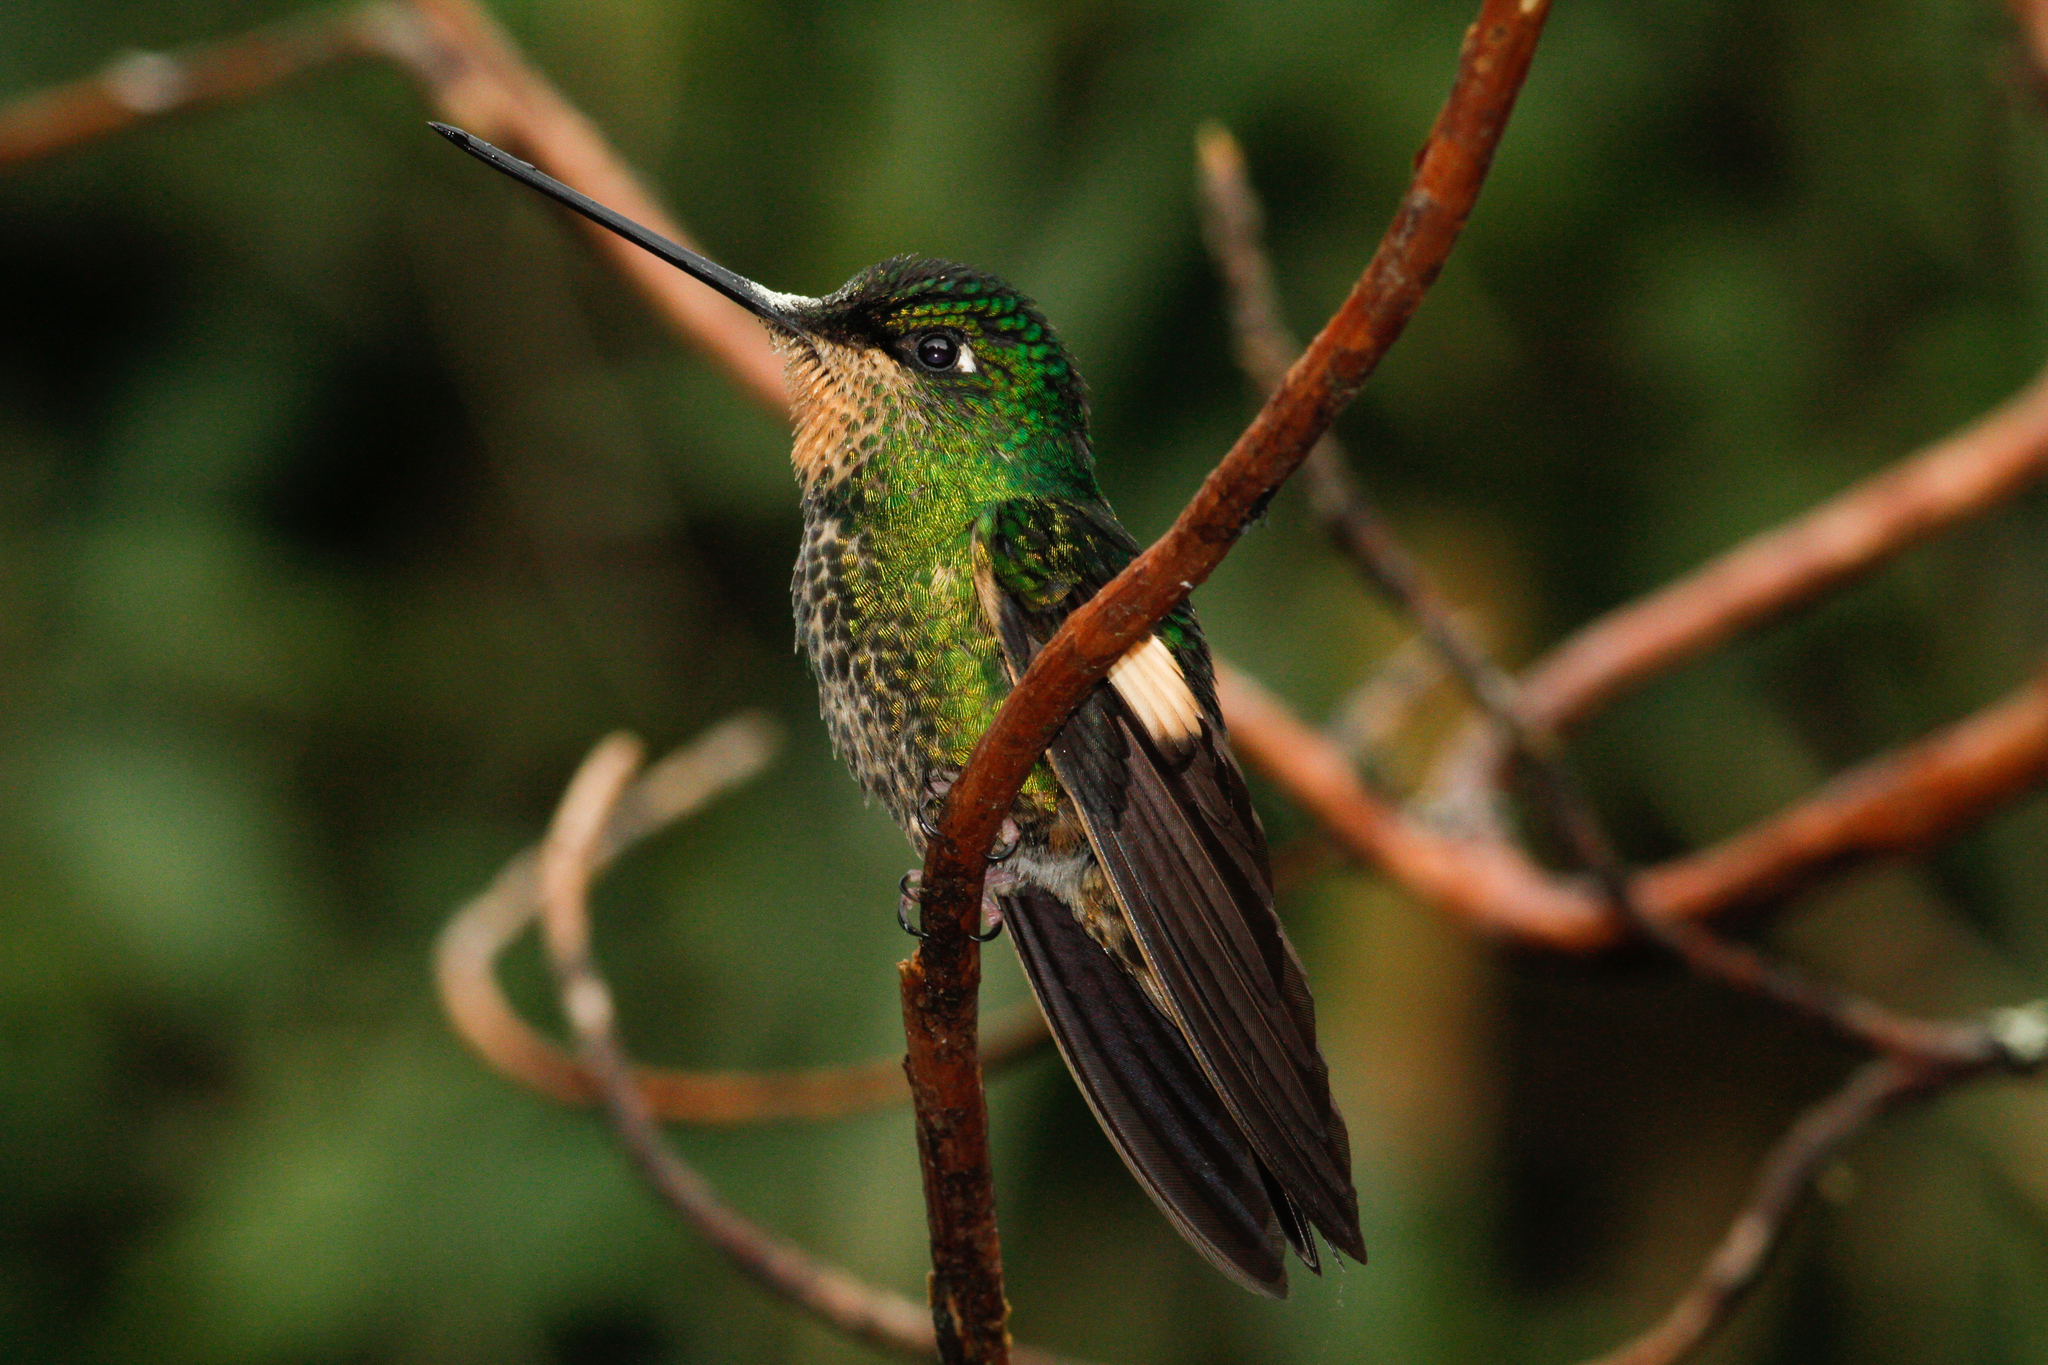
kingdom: Animalia
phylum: Chordata
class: Aves
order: Apodiformes
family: Trochilidae
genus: Coeligena
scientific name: Coeligena lutetiae
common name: Buff-winged starfrontlet
